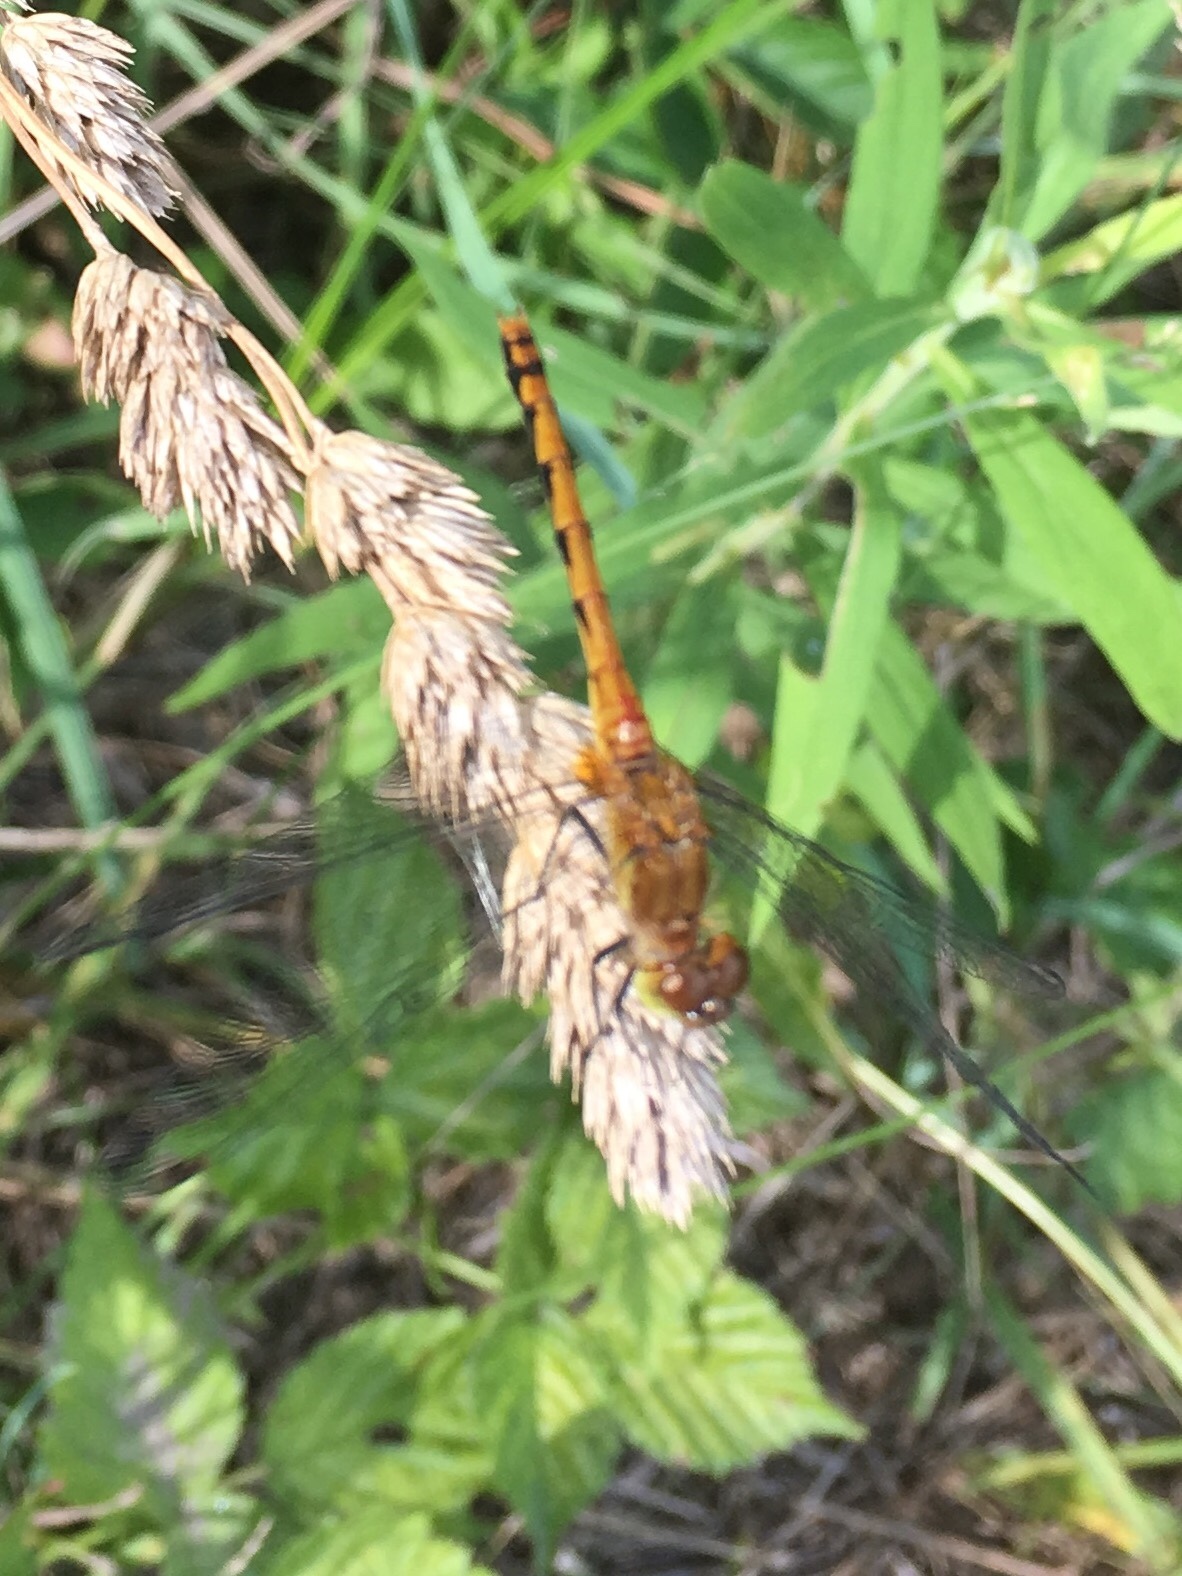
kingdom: Animalia
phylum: Arthropoda
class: Insecta
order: Odonata
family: Libellulidae
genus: Sympetrum
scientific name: Sympetrum
